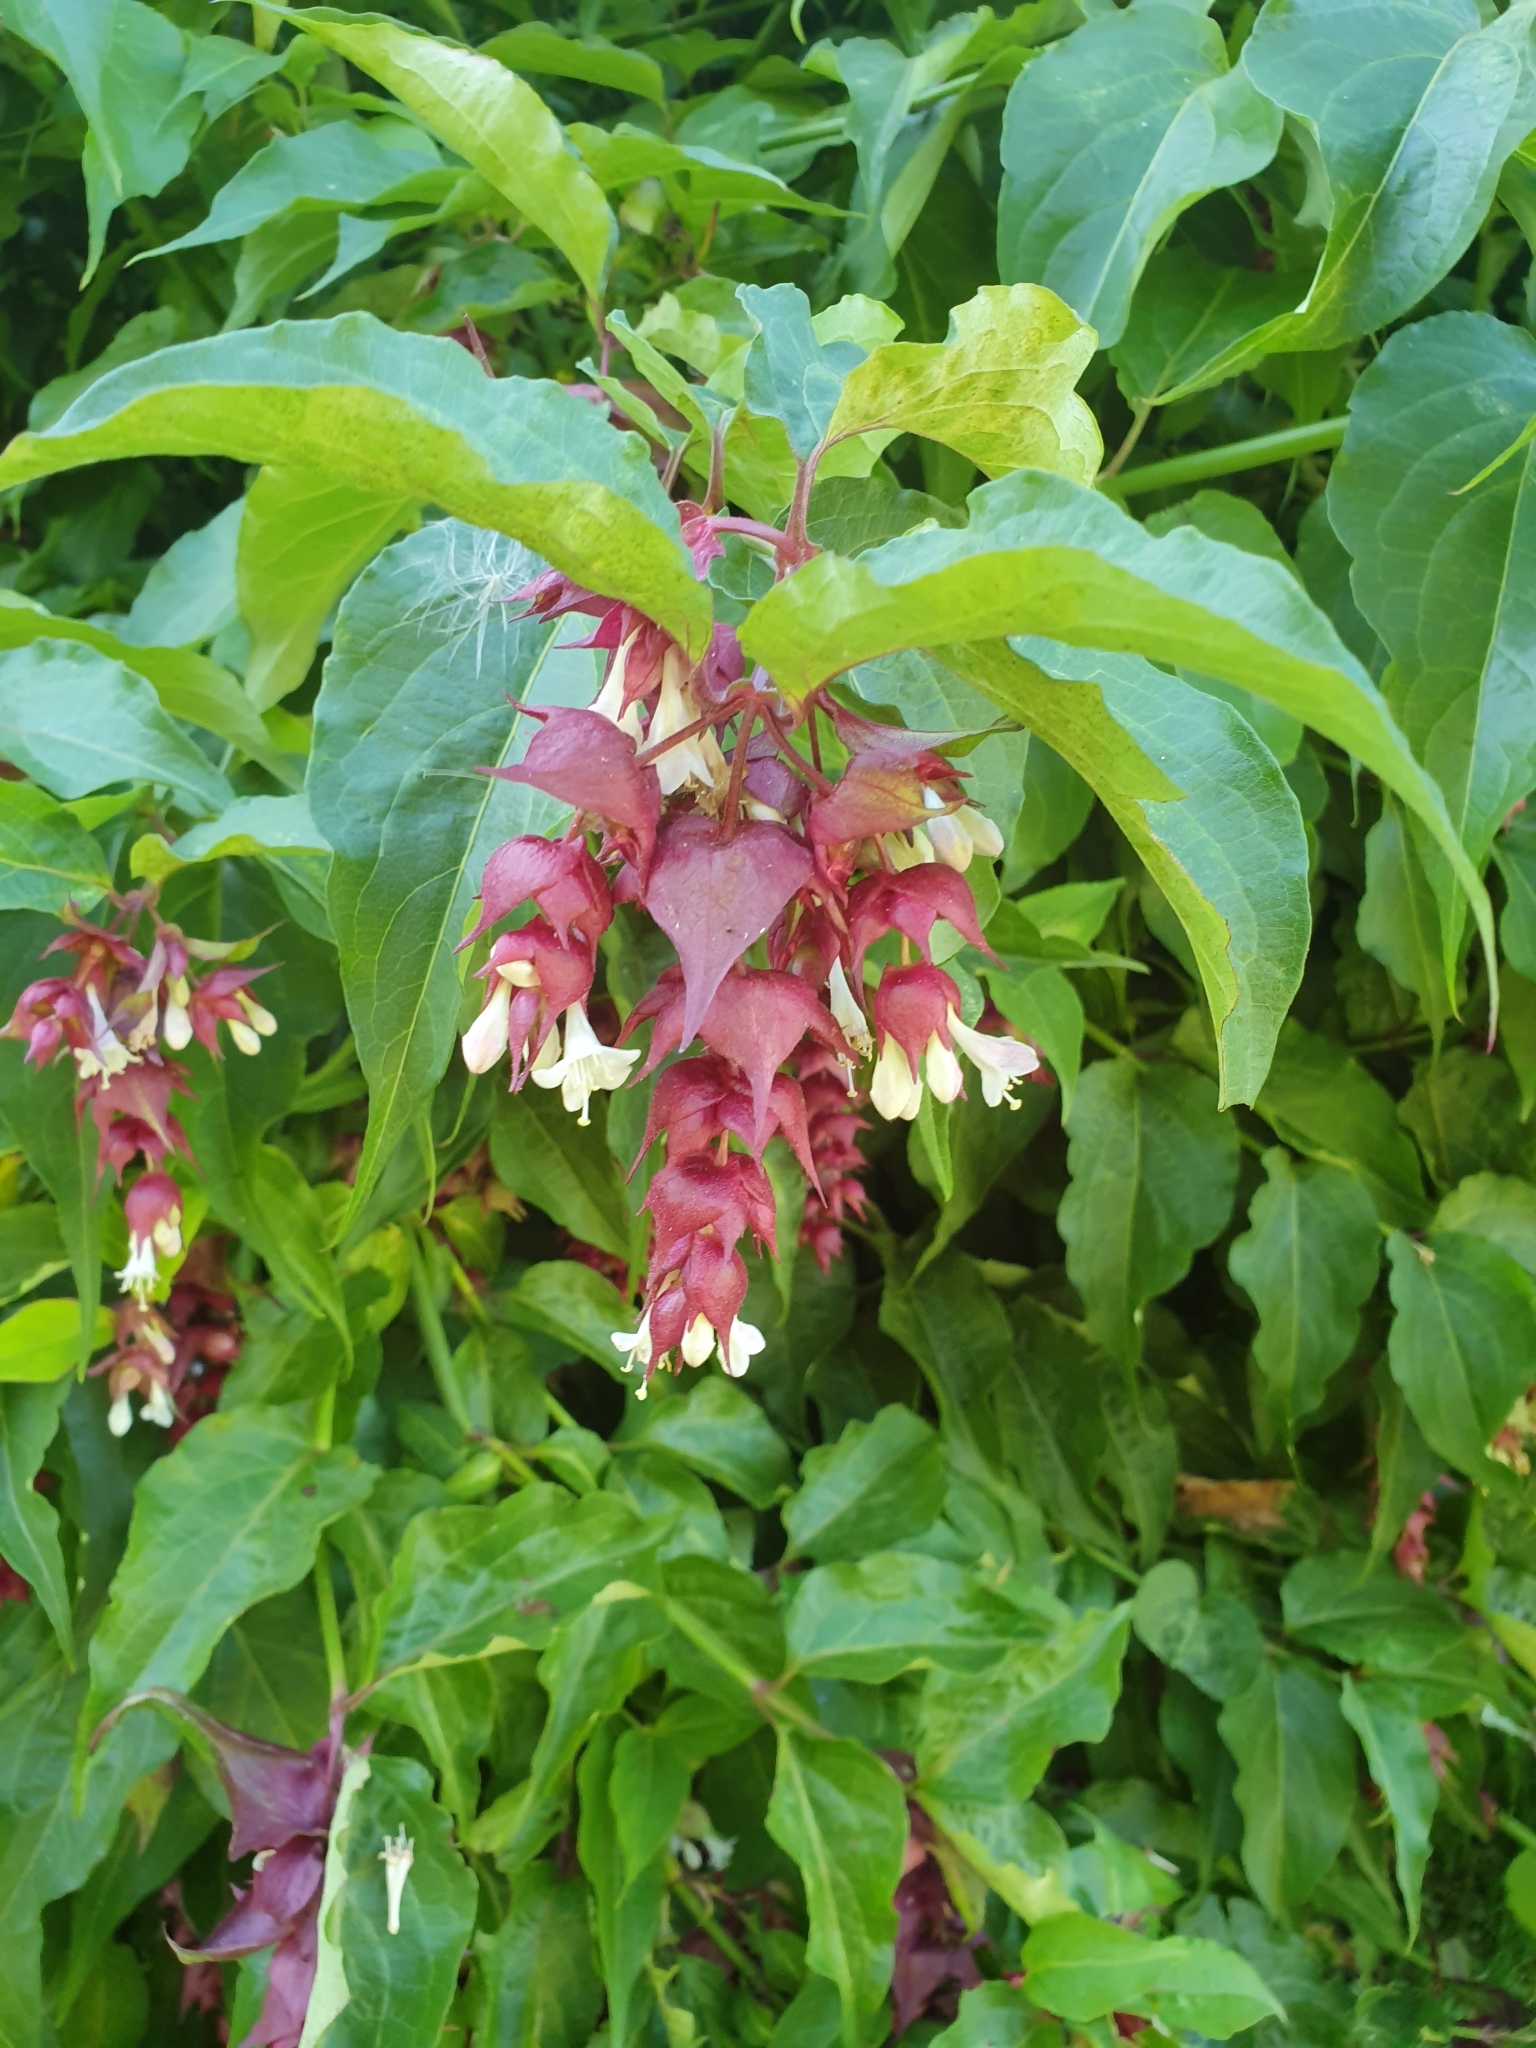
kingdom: Plantae
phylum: Tracheophyta
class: Magnoliopsida
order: Dipsacales
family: Caprifoliaceae
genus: Leycesteria
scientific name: Leycesteria formosa
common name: Himalayan honeysuckle
